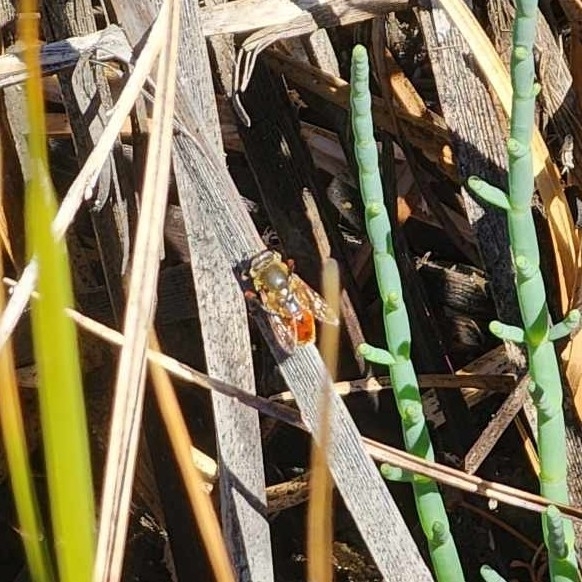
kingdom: Animalia
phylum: Arthropoda
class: Insecta
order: Diptera
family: Syrphidae
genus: Polydontomyia
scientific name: Polydontomyia curvipes
